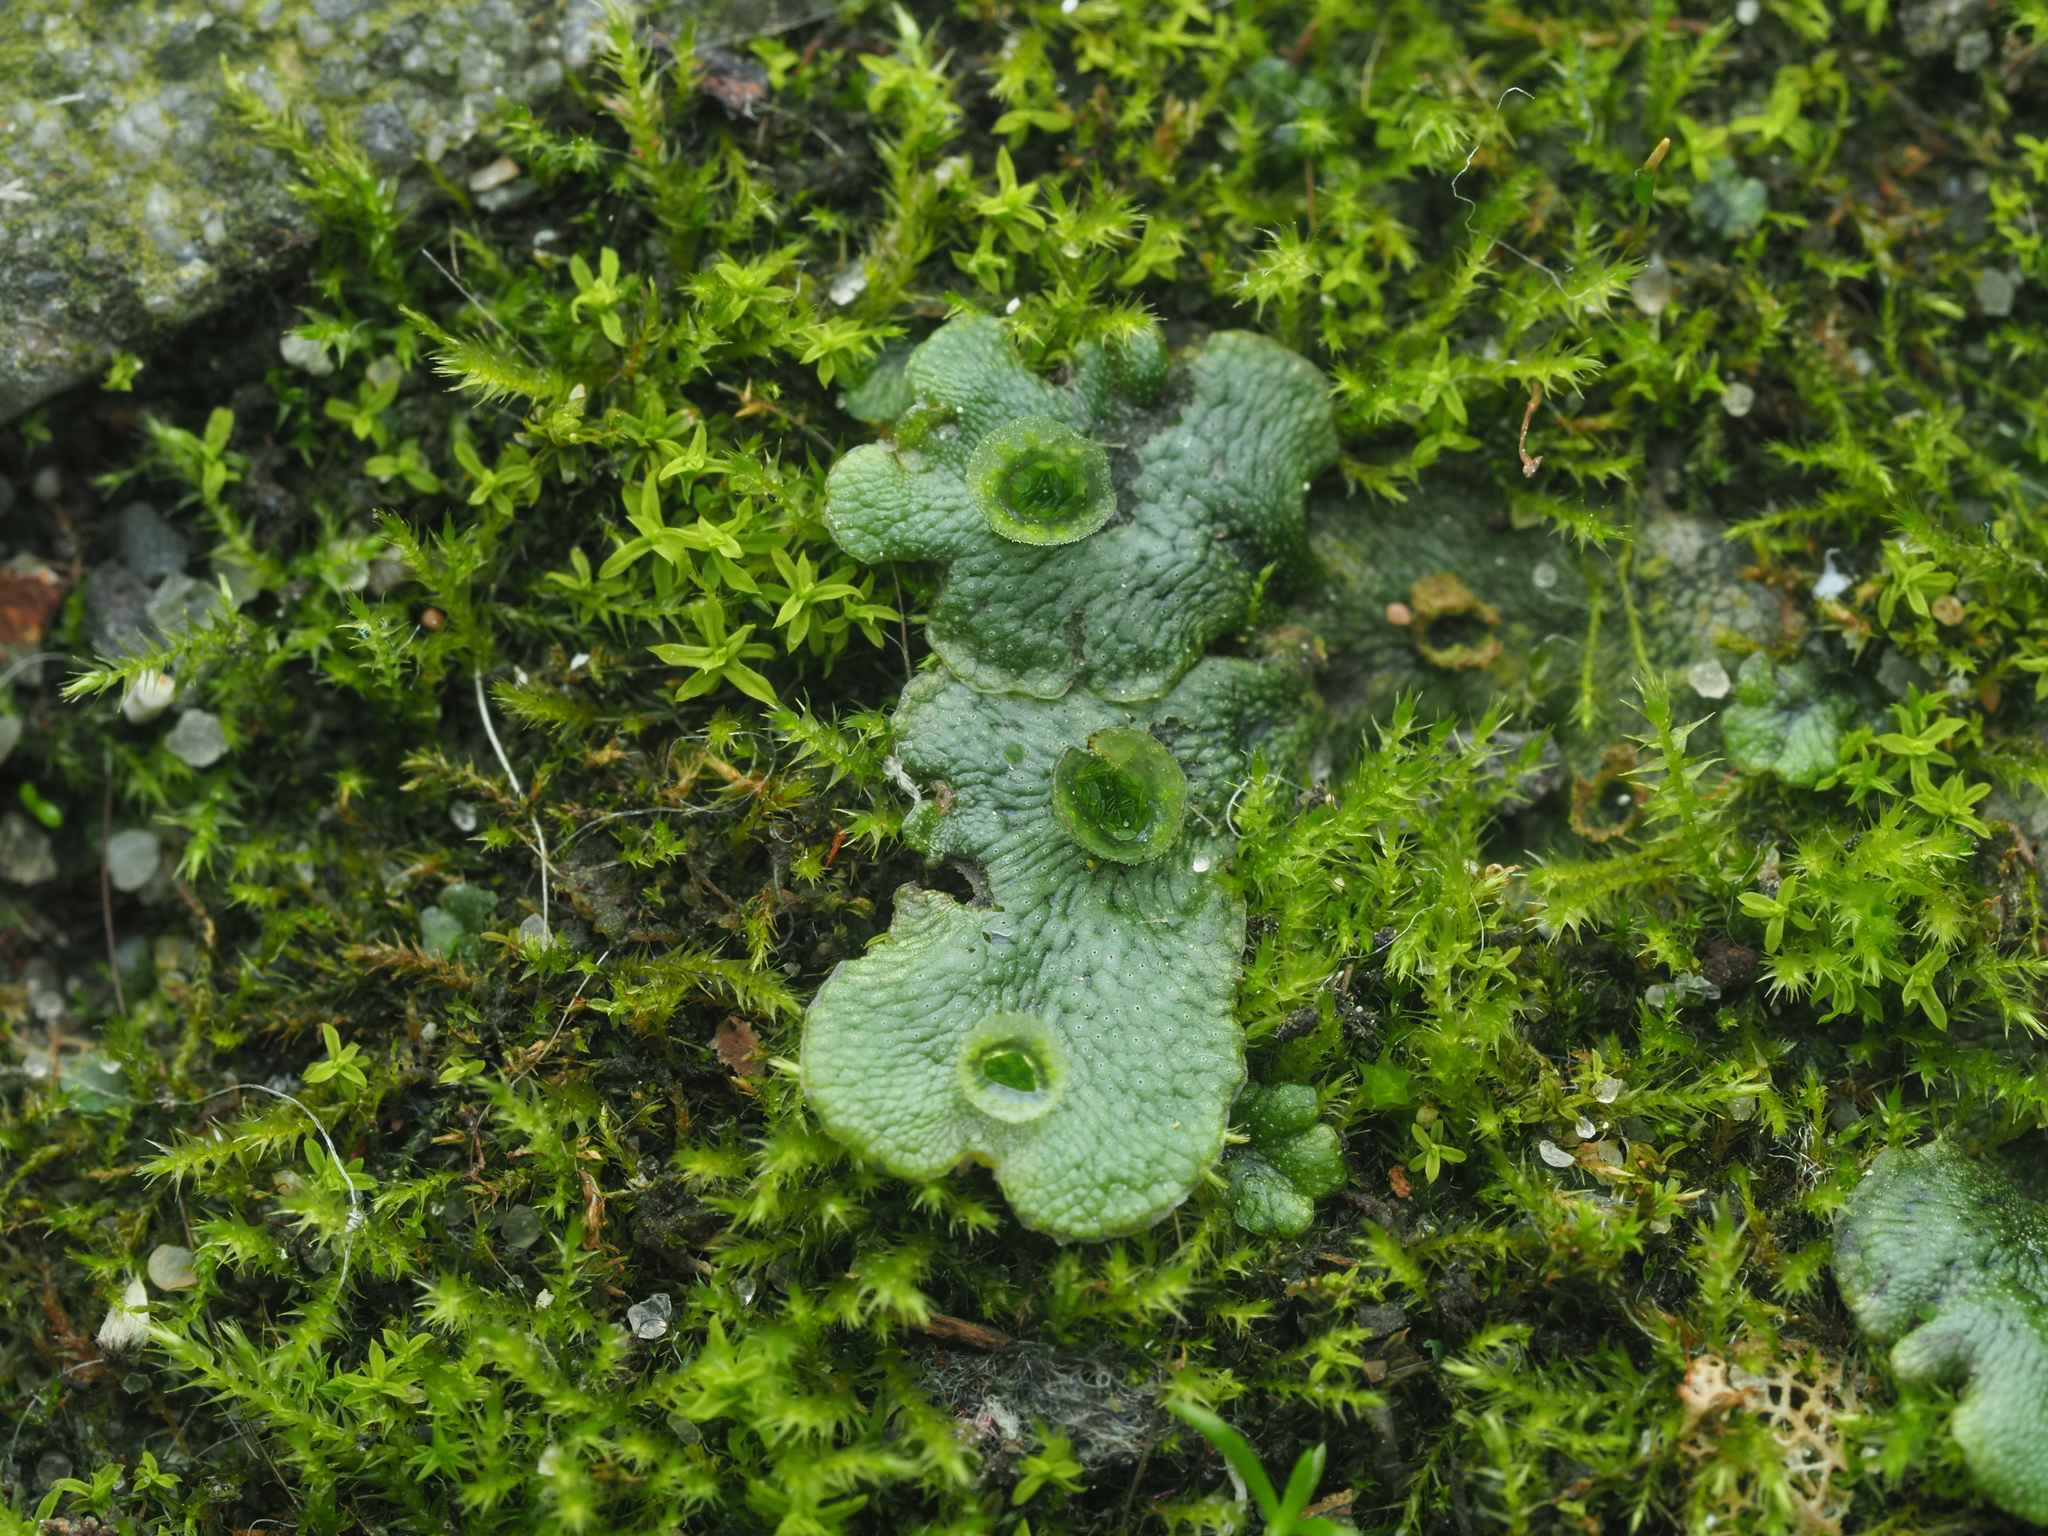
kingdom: Plantae
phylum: Marchantiophyta
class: Marchantiopsida
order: Marchantiales
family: Marchantiaceae
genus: Marchantia
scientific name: Marchantia polymorpha
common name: Common liverwort
